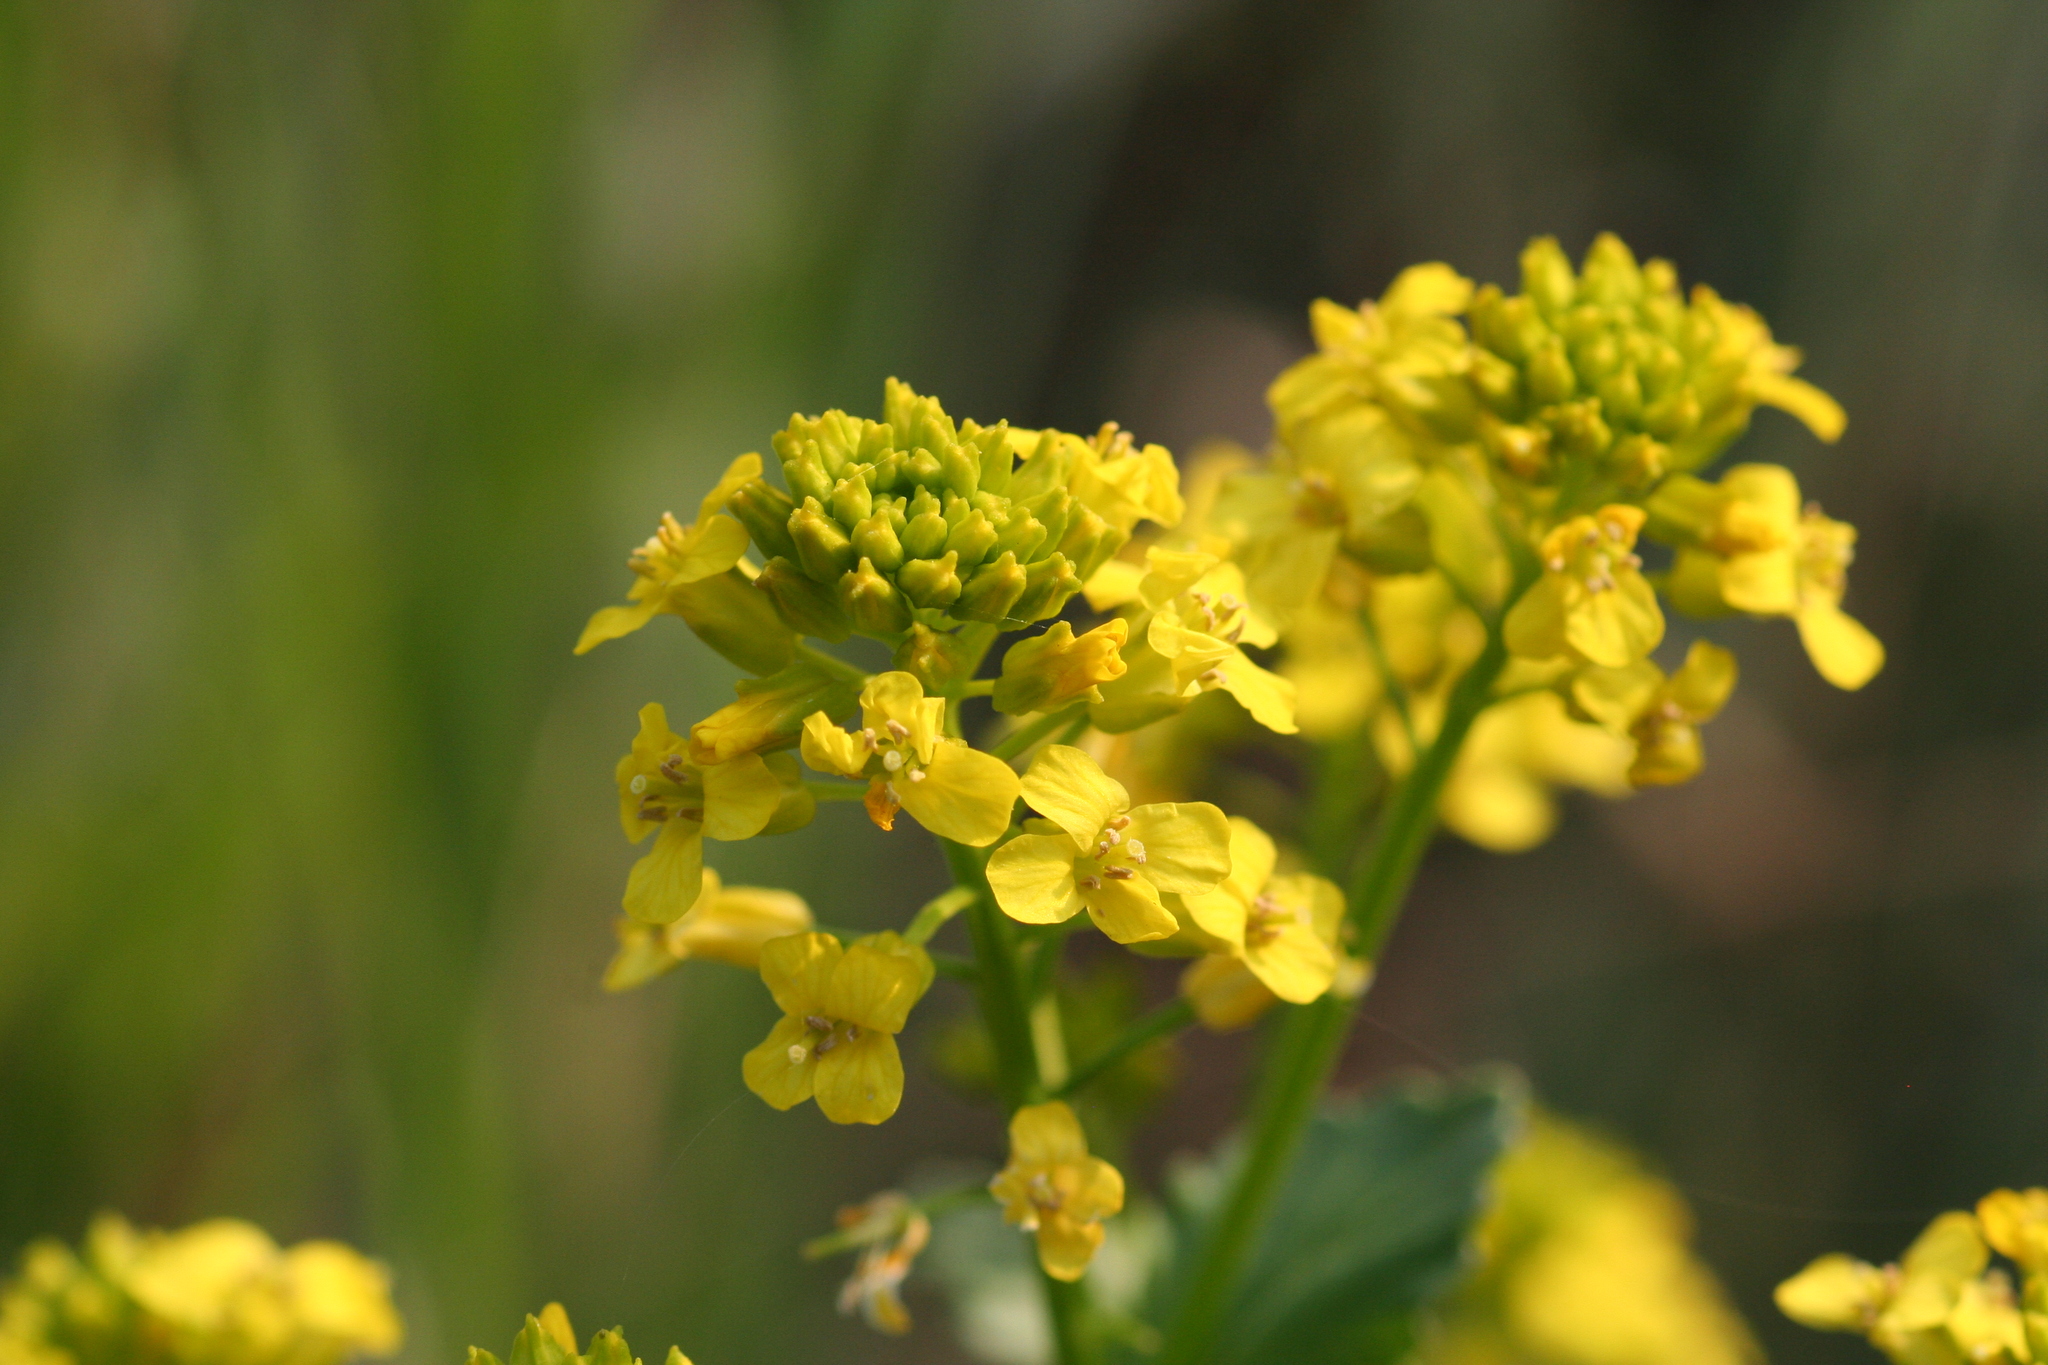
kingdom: Plantae
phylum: Tracheophyta
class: Magnoliopsida
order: Brassicales
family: Brassicaceae
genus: Barbarea
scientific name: Barbarea vulgaris
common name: Cressy-greens
